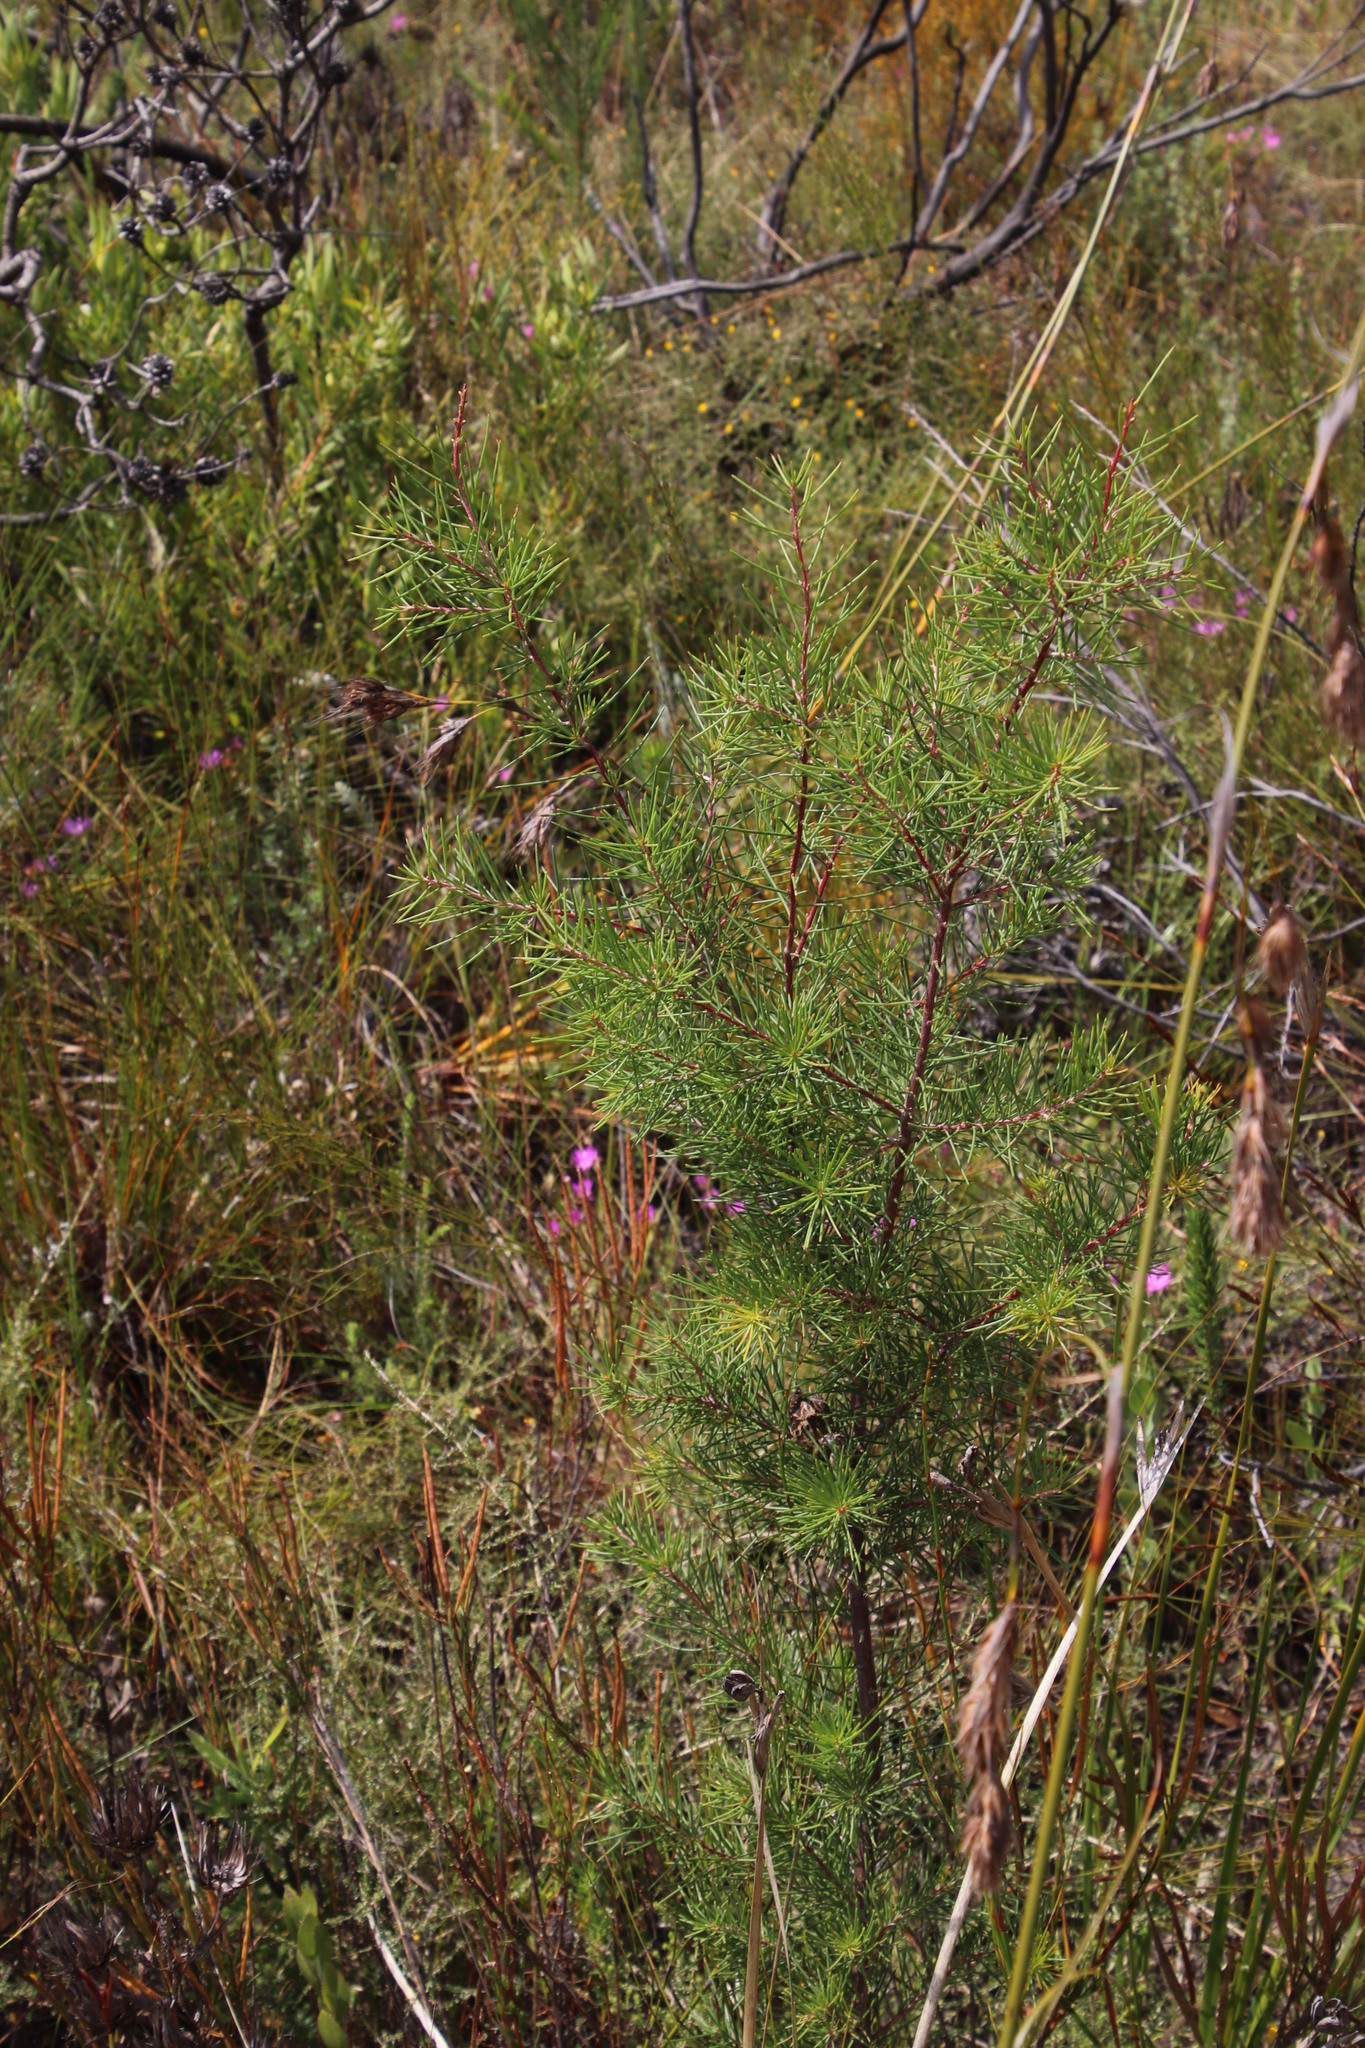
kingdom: Plantae
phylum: Tracheophyta
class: Magnoliopsida
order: Proteales
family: Proteaceae
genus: Hakea
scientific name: Hakea sericea
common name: Needle bush
